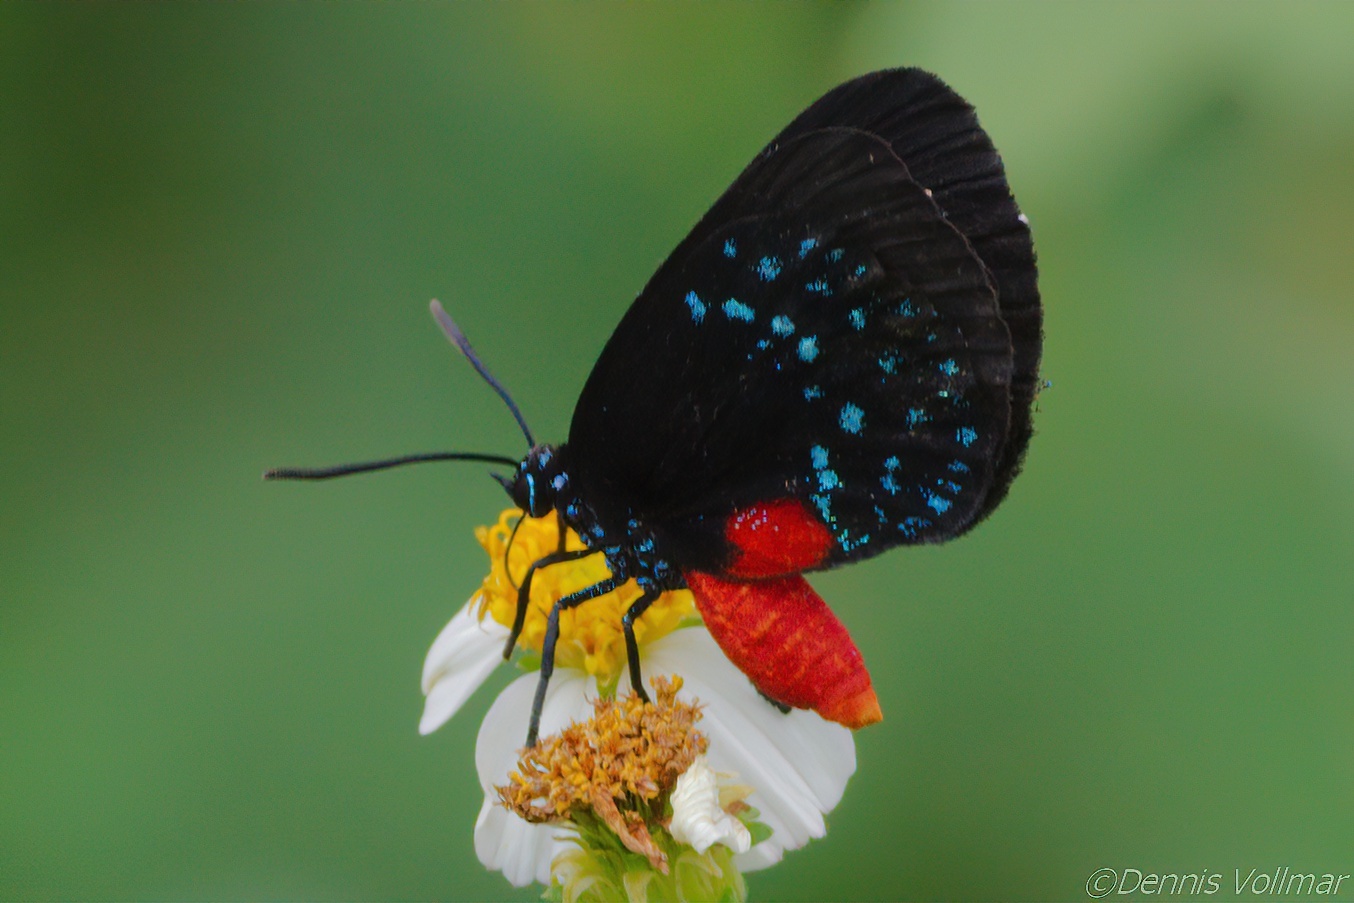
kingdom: Animalia
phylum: Arthropoda
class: Insecta
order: Lepidoptera
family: Lycaenidae
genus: Eumaeus
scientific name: Eumaeus atala
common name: Atala
